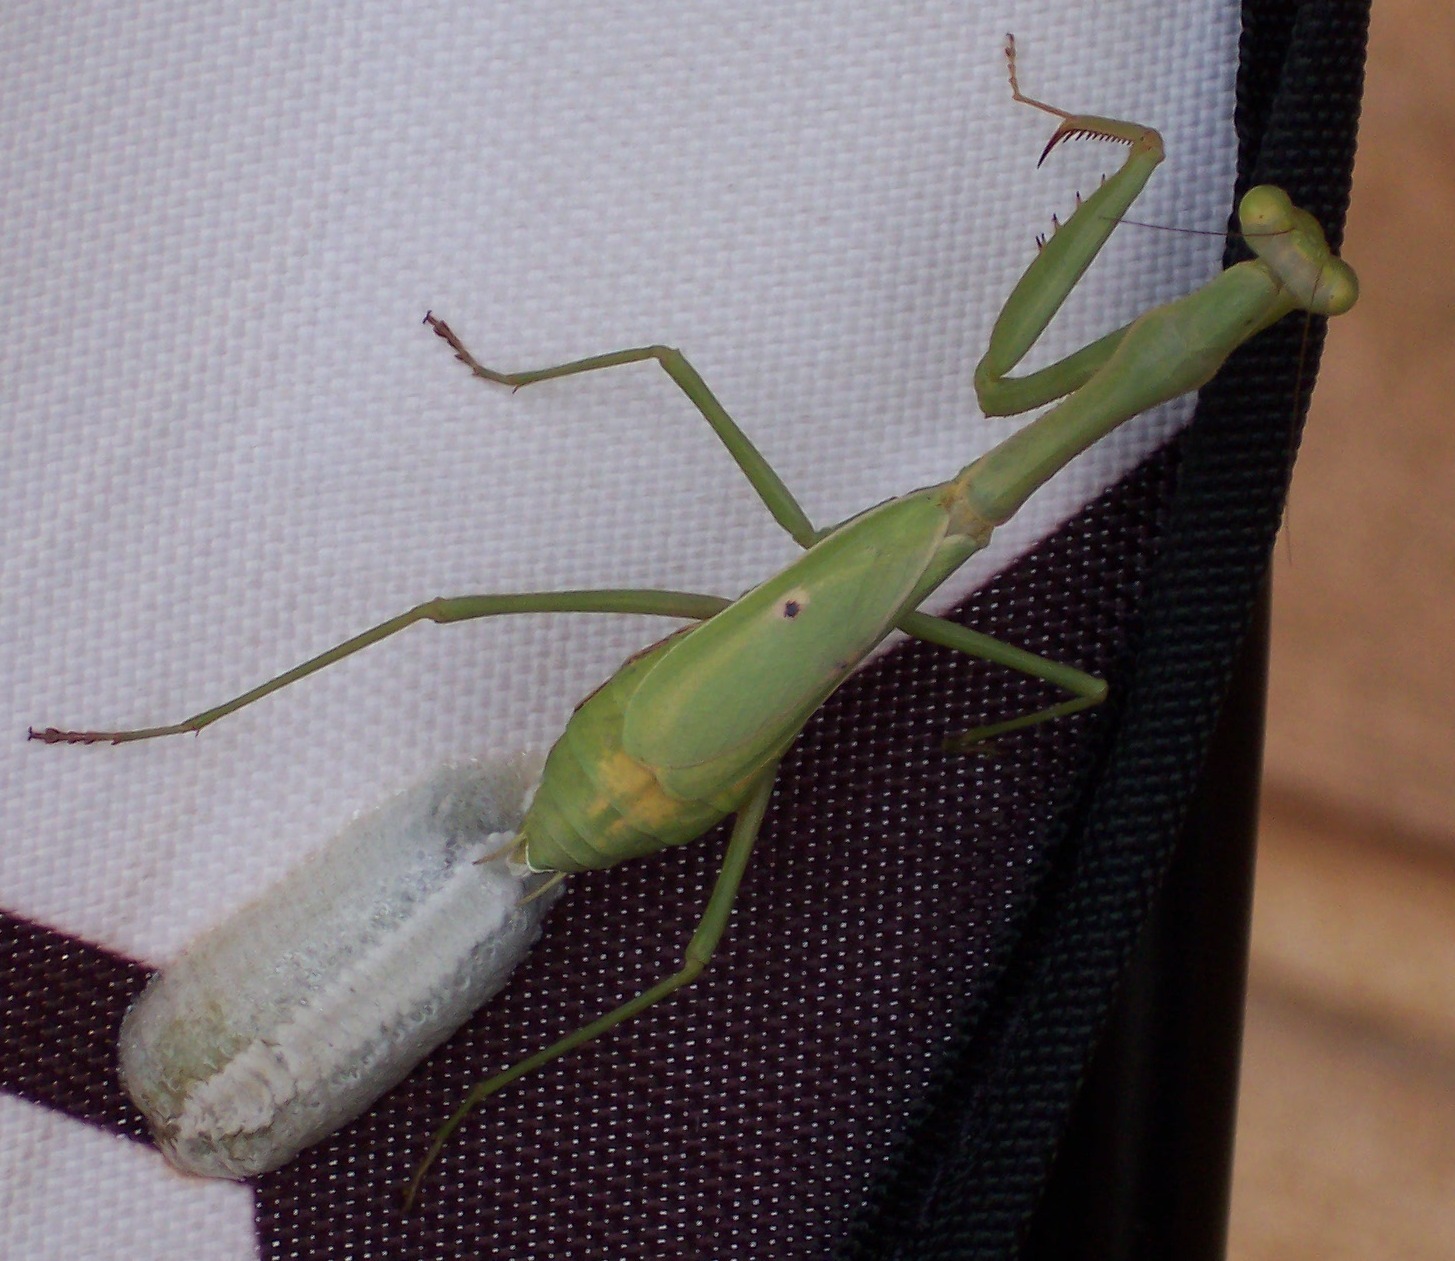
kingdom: Animalia
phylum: Arthropoda
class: Insecta
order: Mantodea
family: Mantidae
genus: Stagmomantis
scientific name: Stagmomantis carolina
